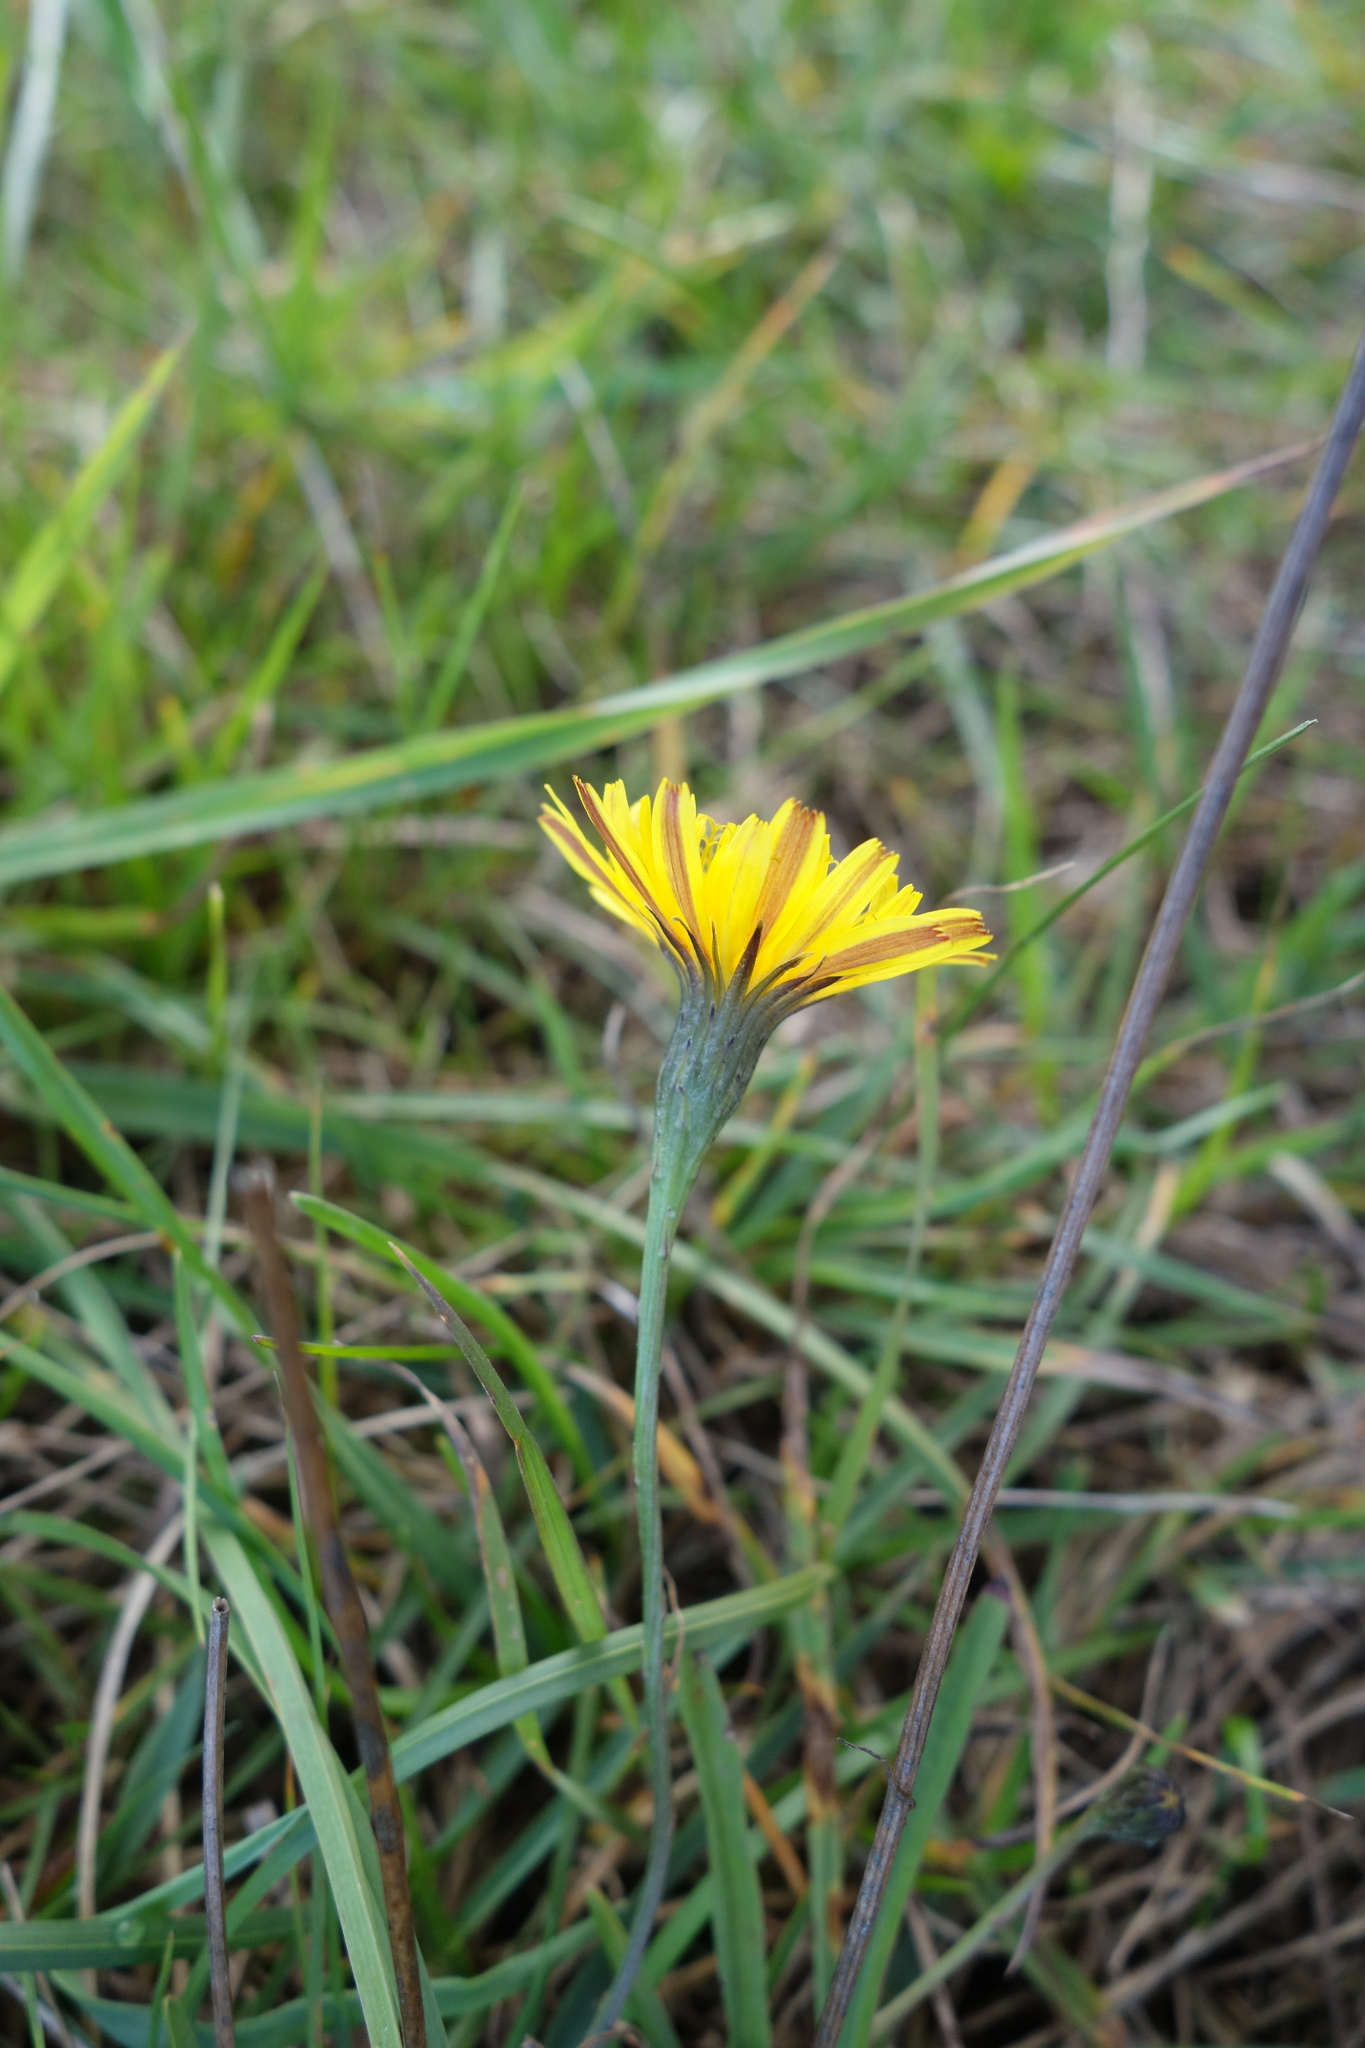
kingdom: Plantae
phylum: Tracheophyta
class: Magnoliopsida
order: Asterales
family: Asteraceae
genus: Scorzoneroides
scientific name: Scorzoneroides autumnalis
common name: Autumn hawkbit
